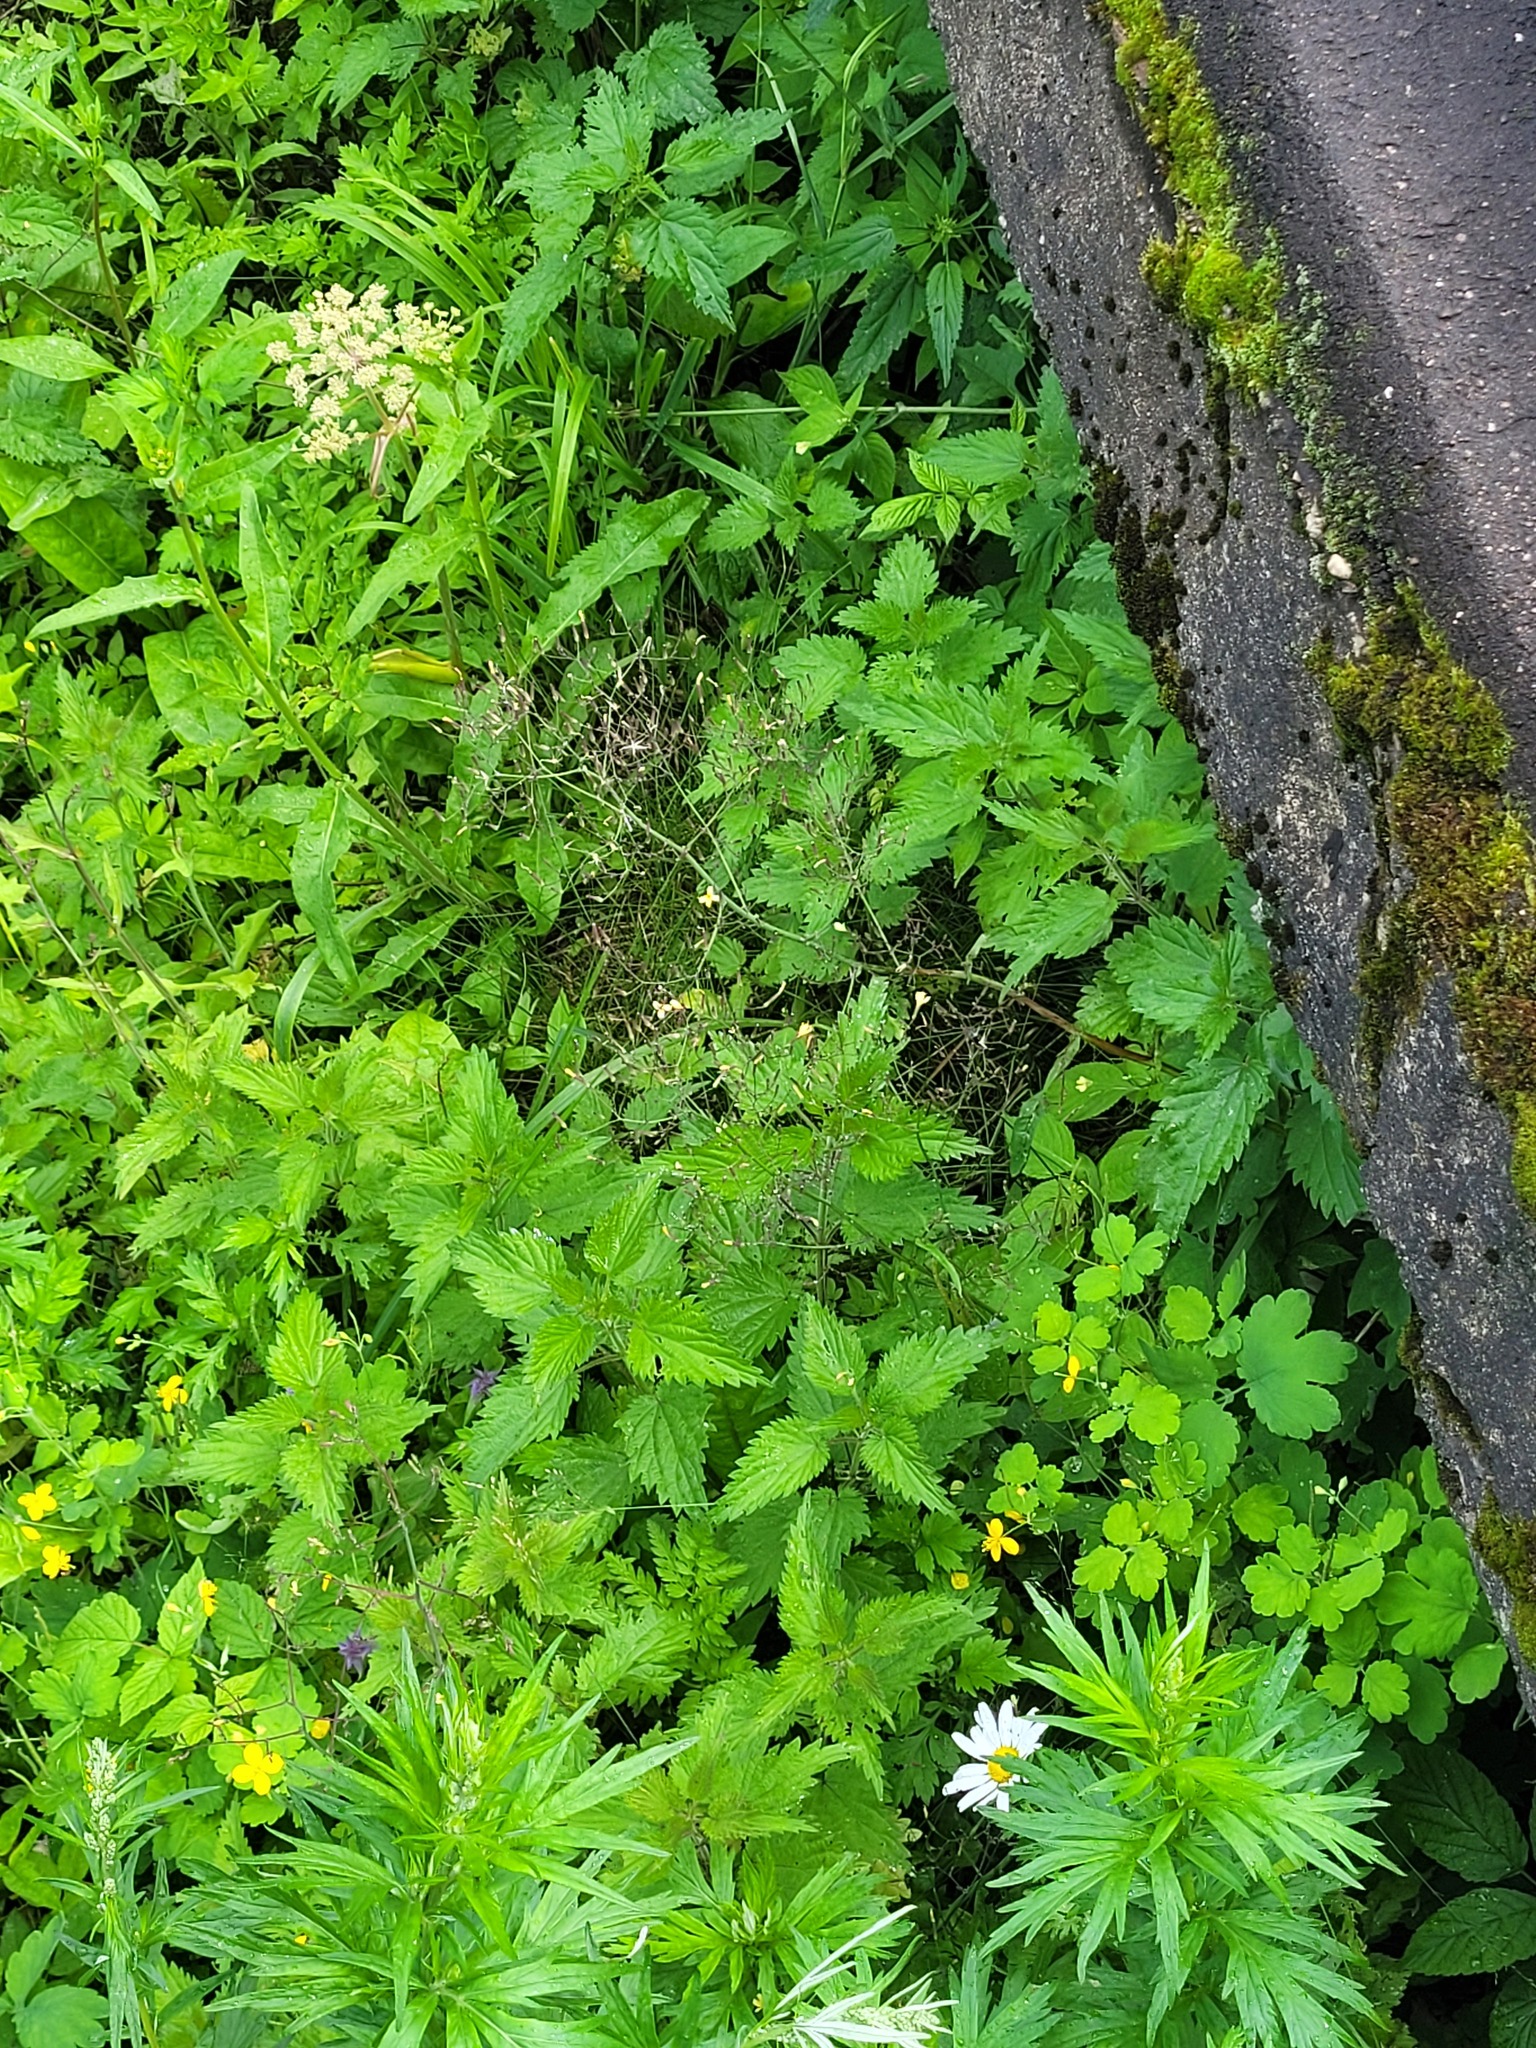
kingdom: Plantae
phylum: Tracheophyta
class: Magnoliopsida
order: Asterales
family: Asteraceae
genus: Mycelis
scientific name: Mycelis muralis
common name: Wall lettuce
